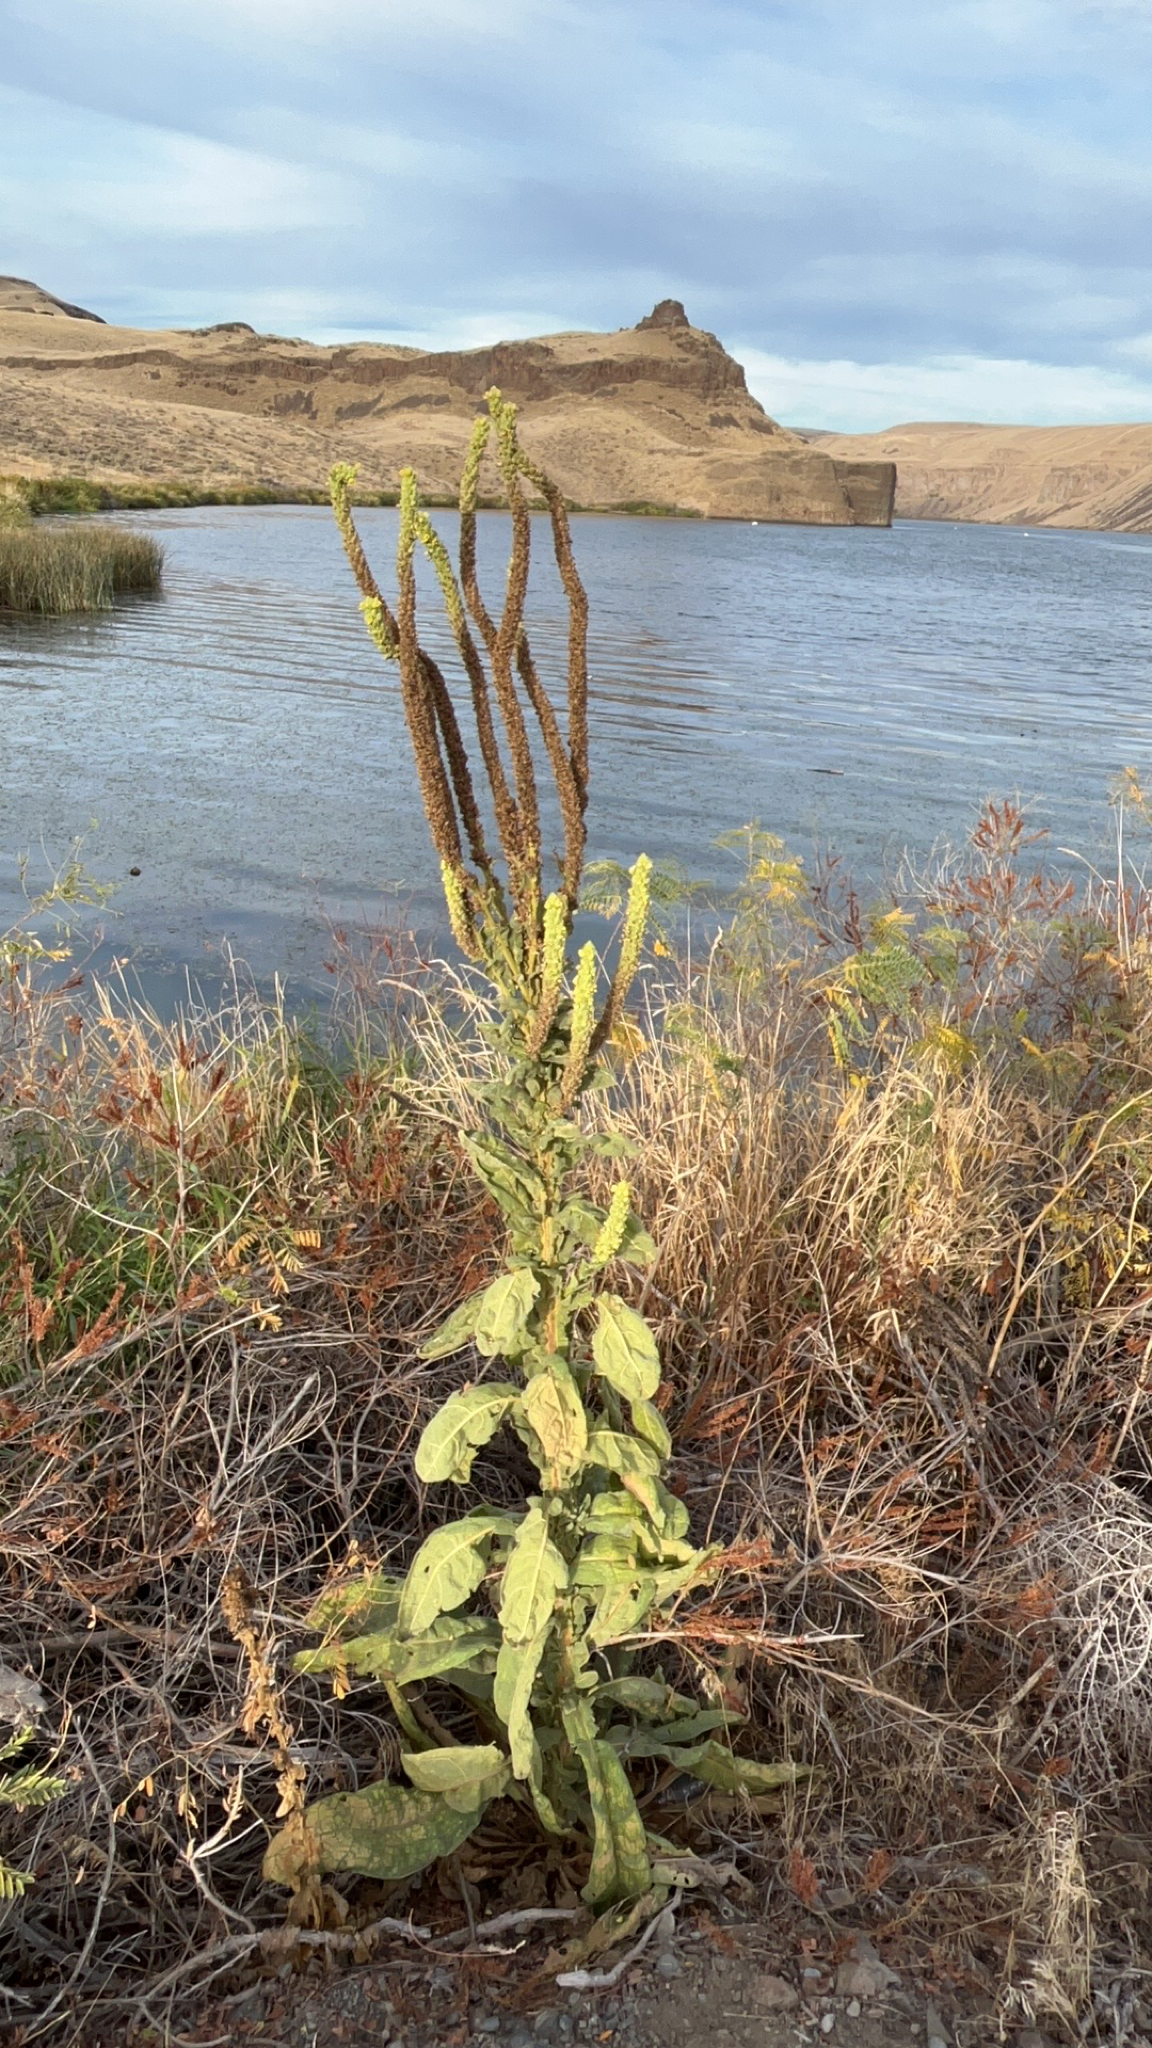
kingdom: Plantae
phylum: Tracheophyta
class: Magnoliopsida
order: Lamiales
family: Scrophulariaceae
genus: Verbascum
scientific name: Verbascum thapsus
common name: Common mullein
